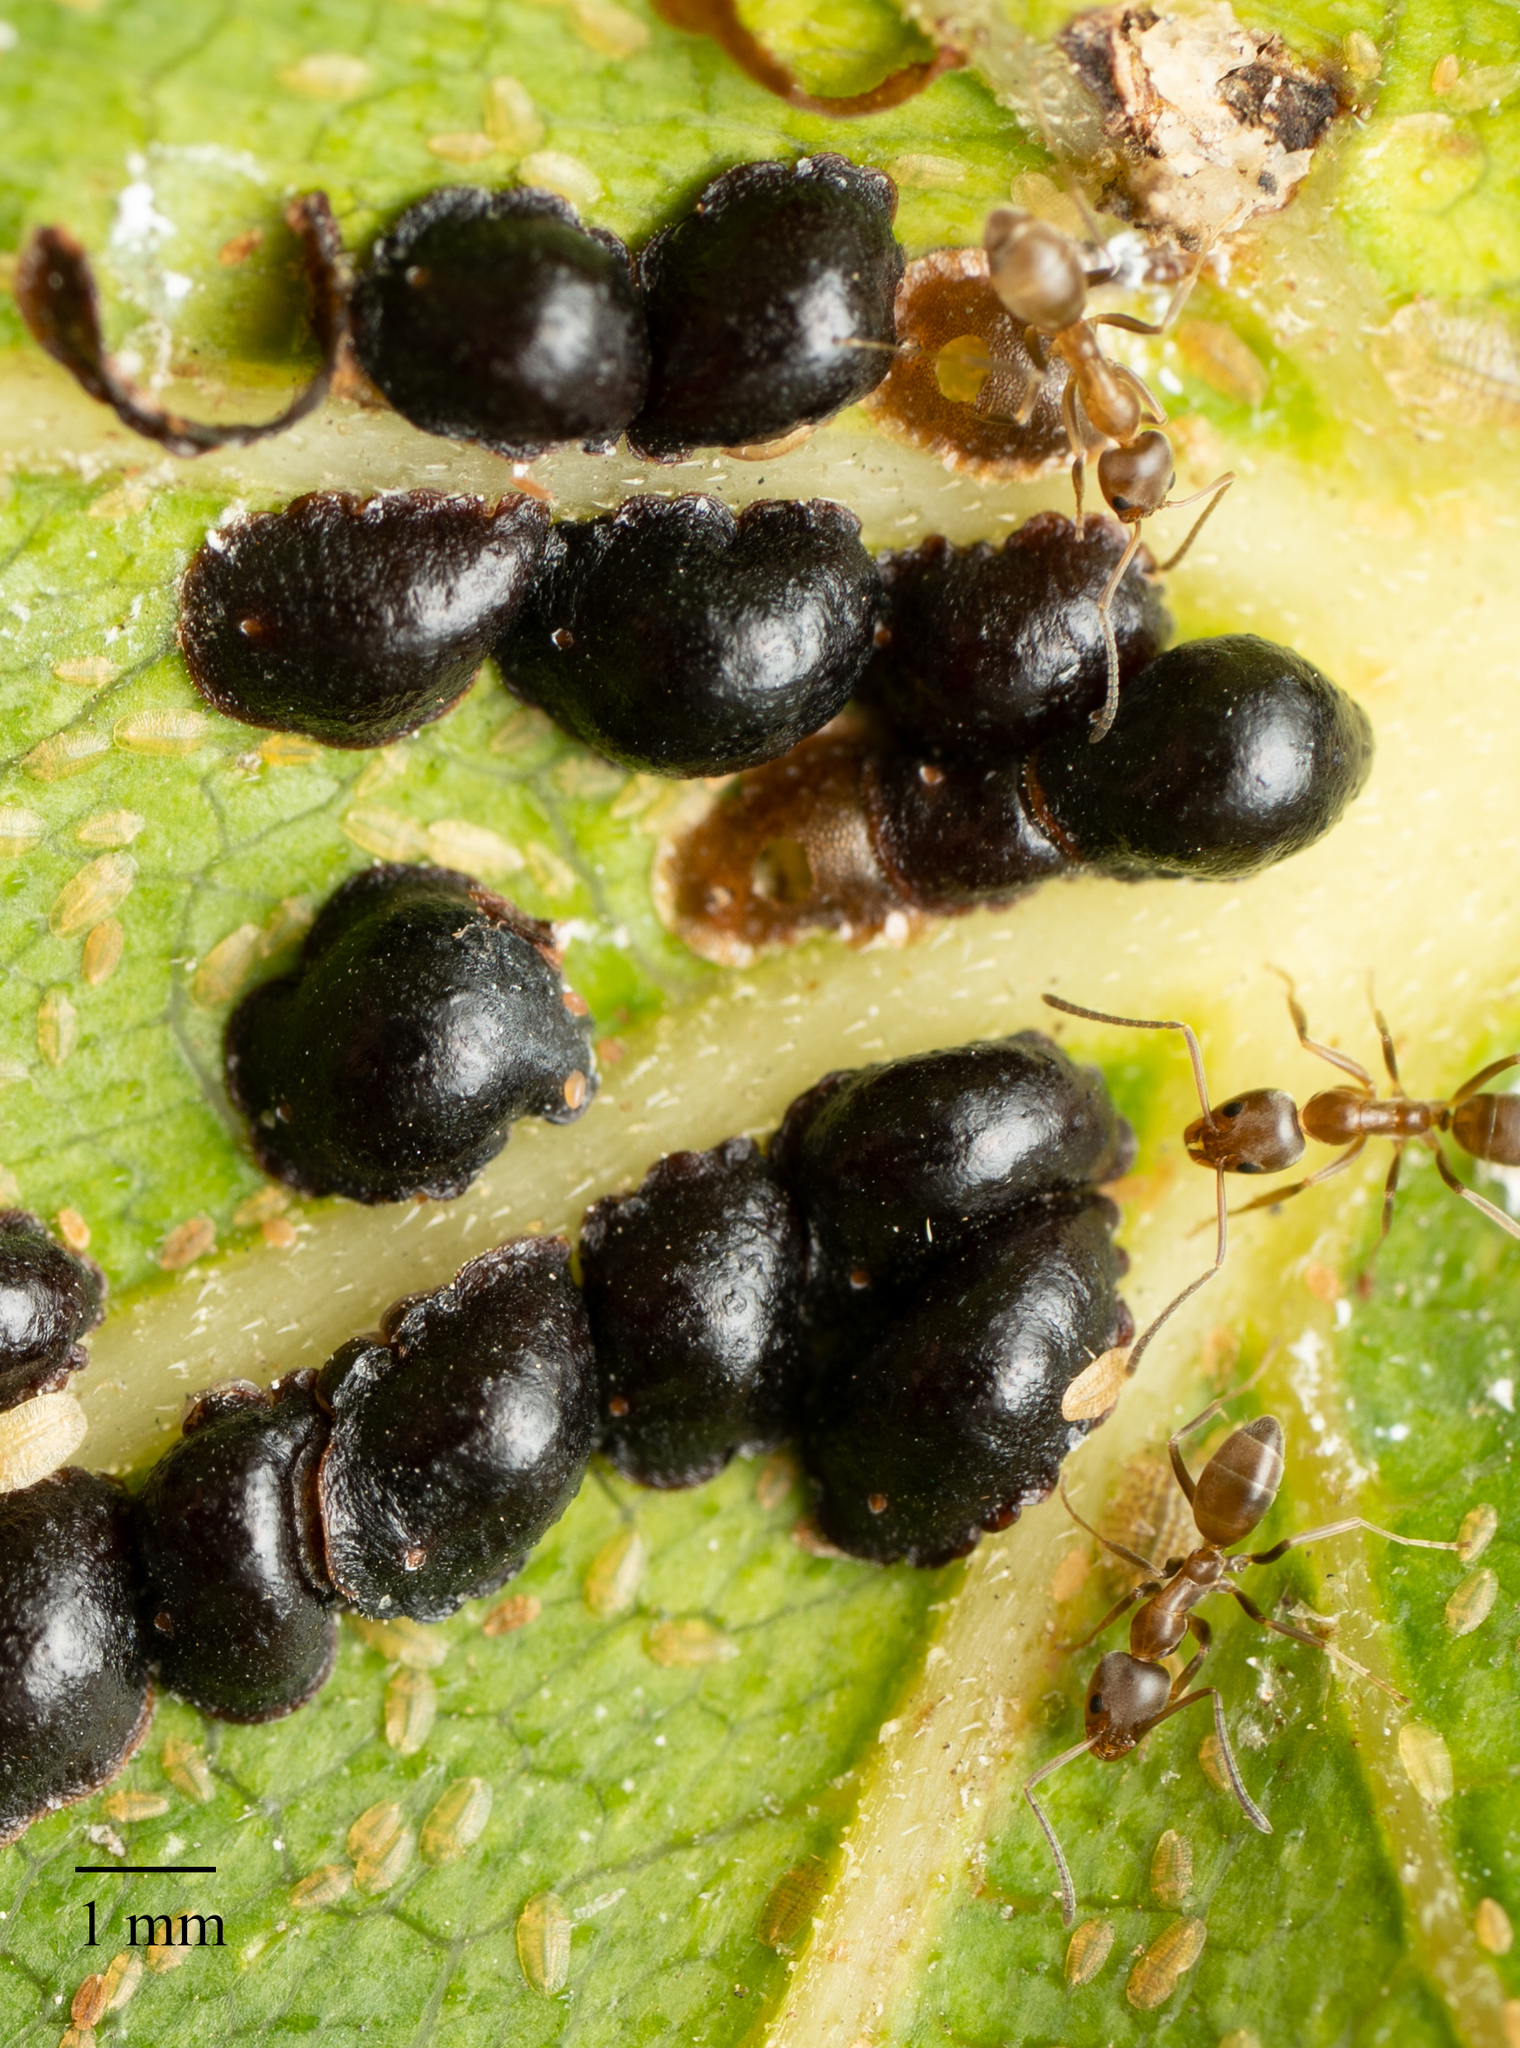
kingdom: Animalia
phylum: Arthropoda
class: Insecta
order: Hymenoptera
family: Formicidae
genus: Linepithema
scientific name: Linepithema humile
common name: Argentine ant
